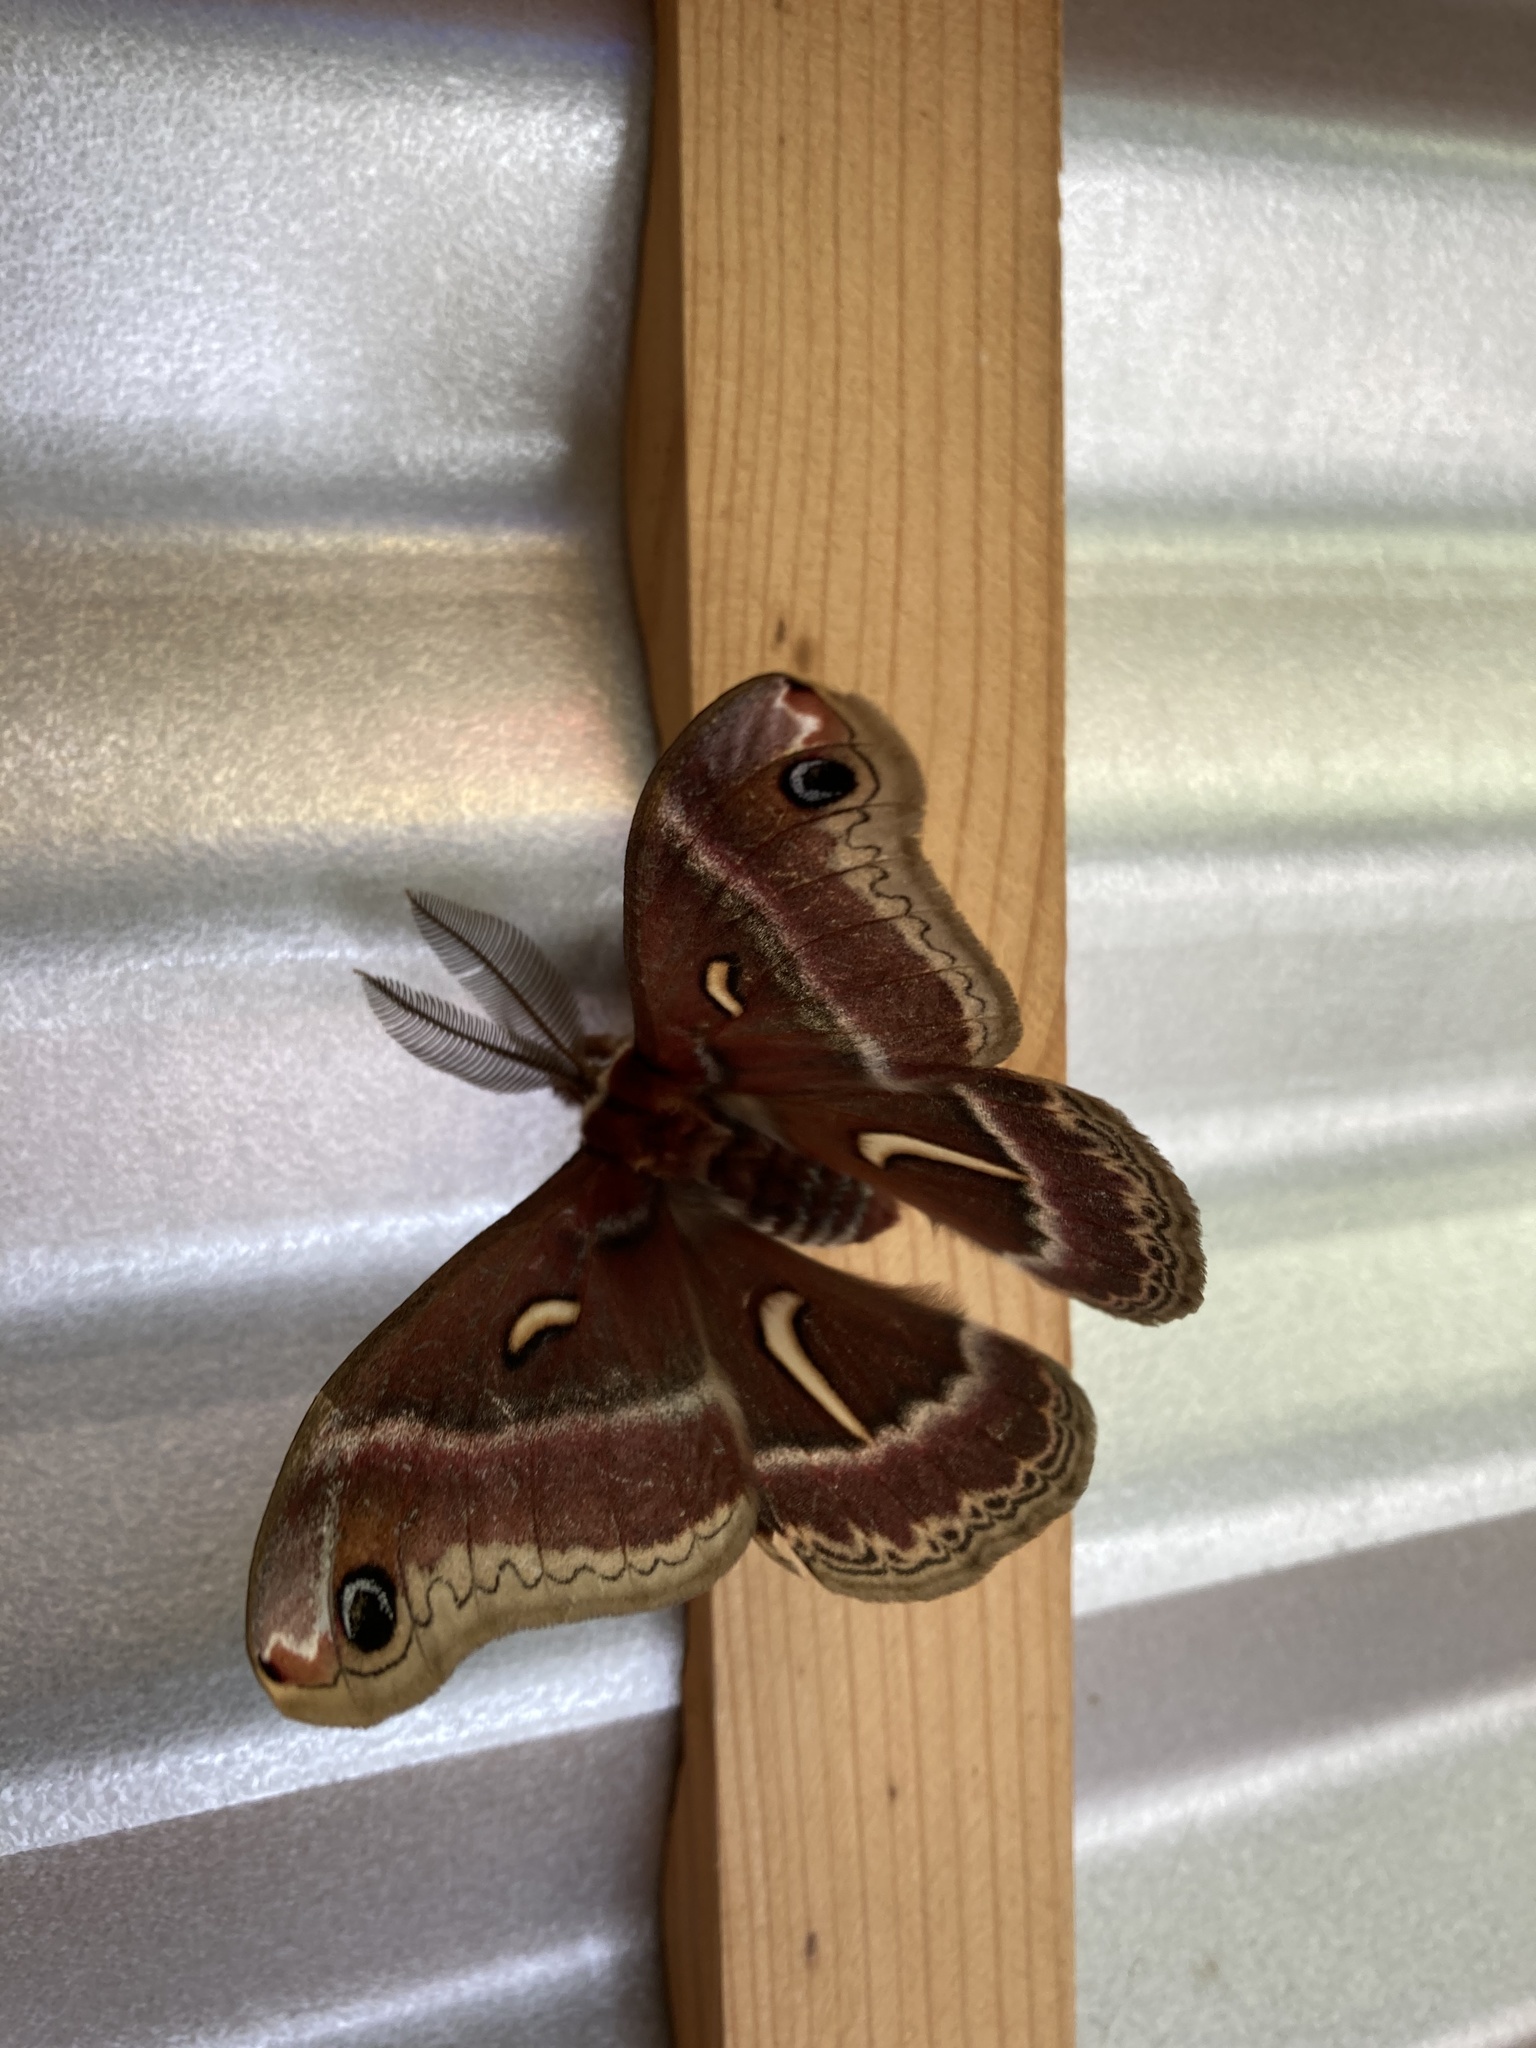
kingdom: Animalia
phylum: Arthropoda
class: Insecta
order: Lepidoptera
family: Saturniidae
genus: Hyalophora
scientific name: Hyalophora euryalus
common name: Ceanothus silkmoth
